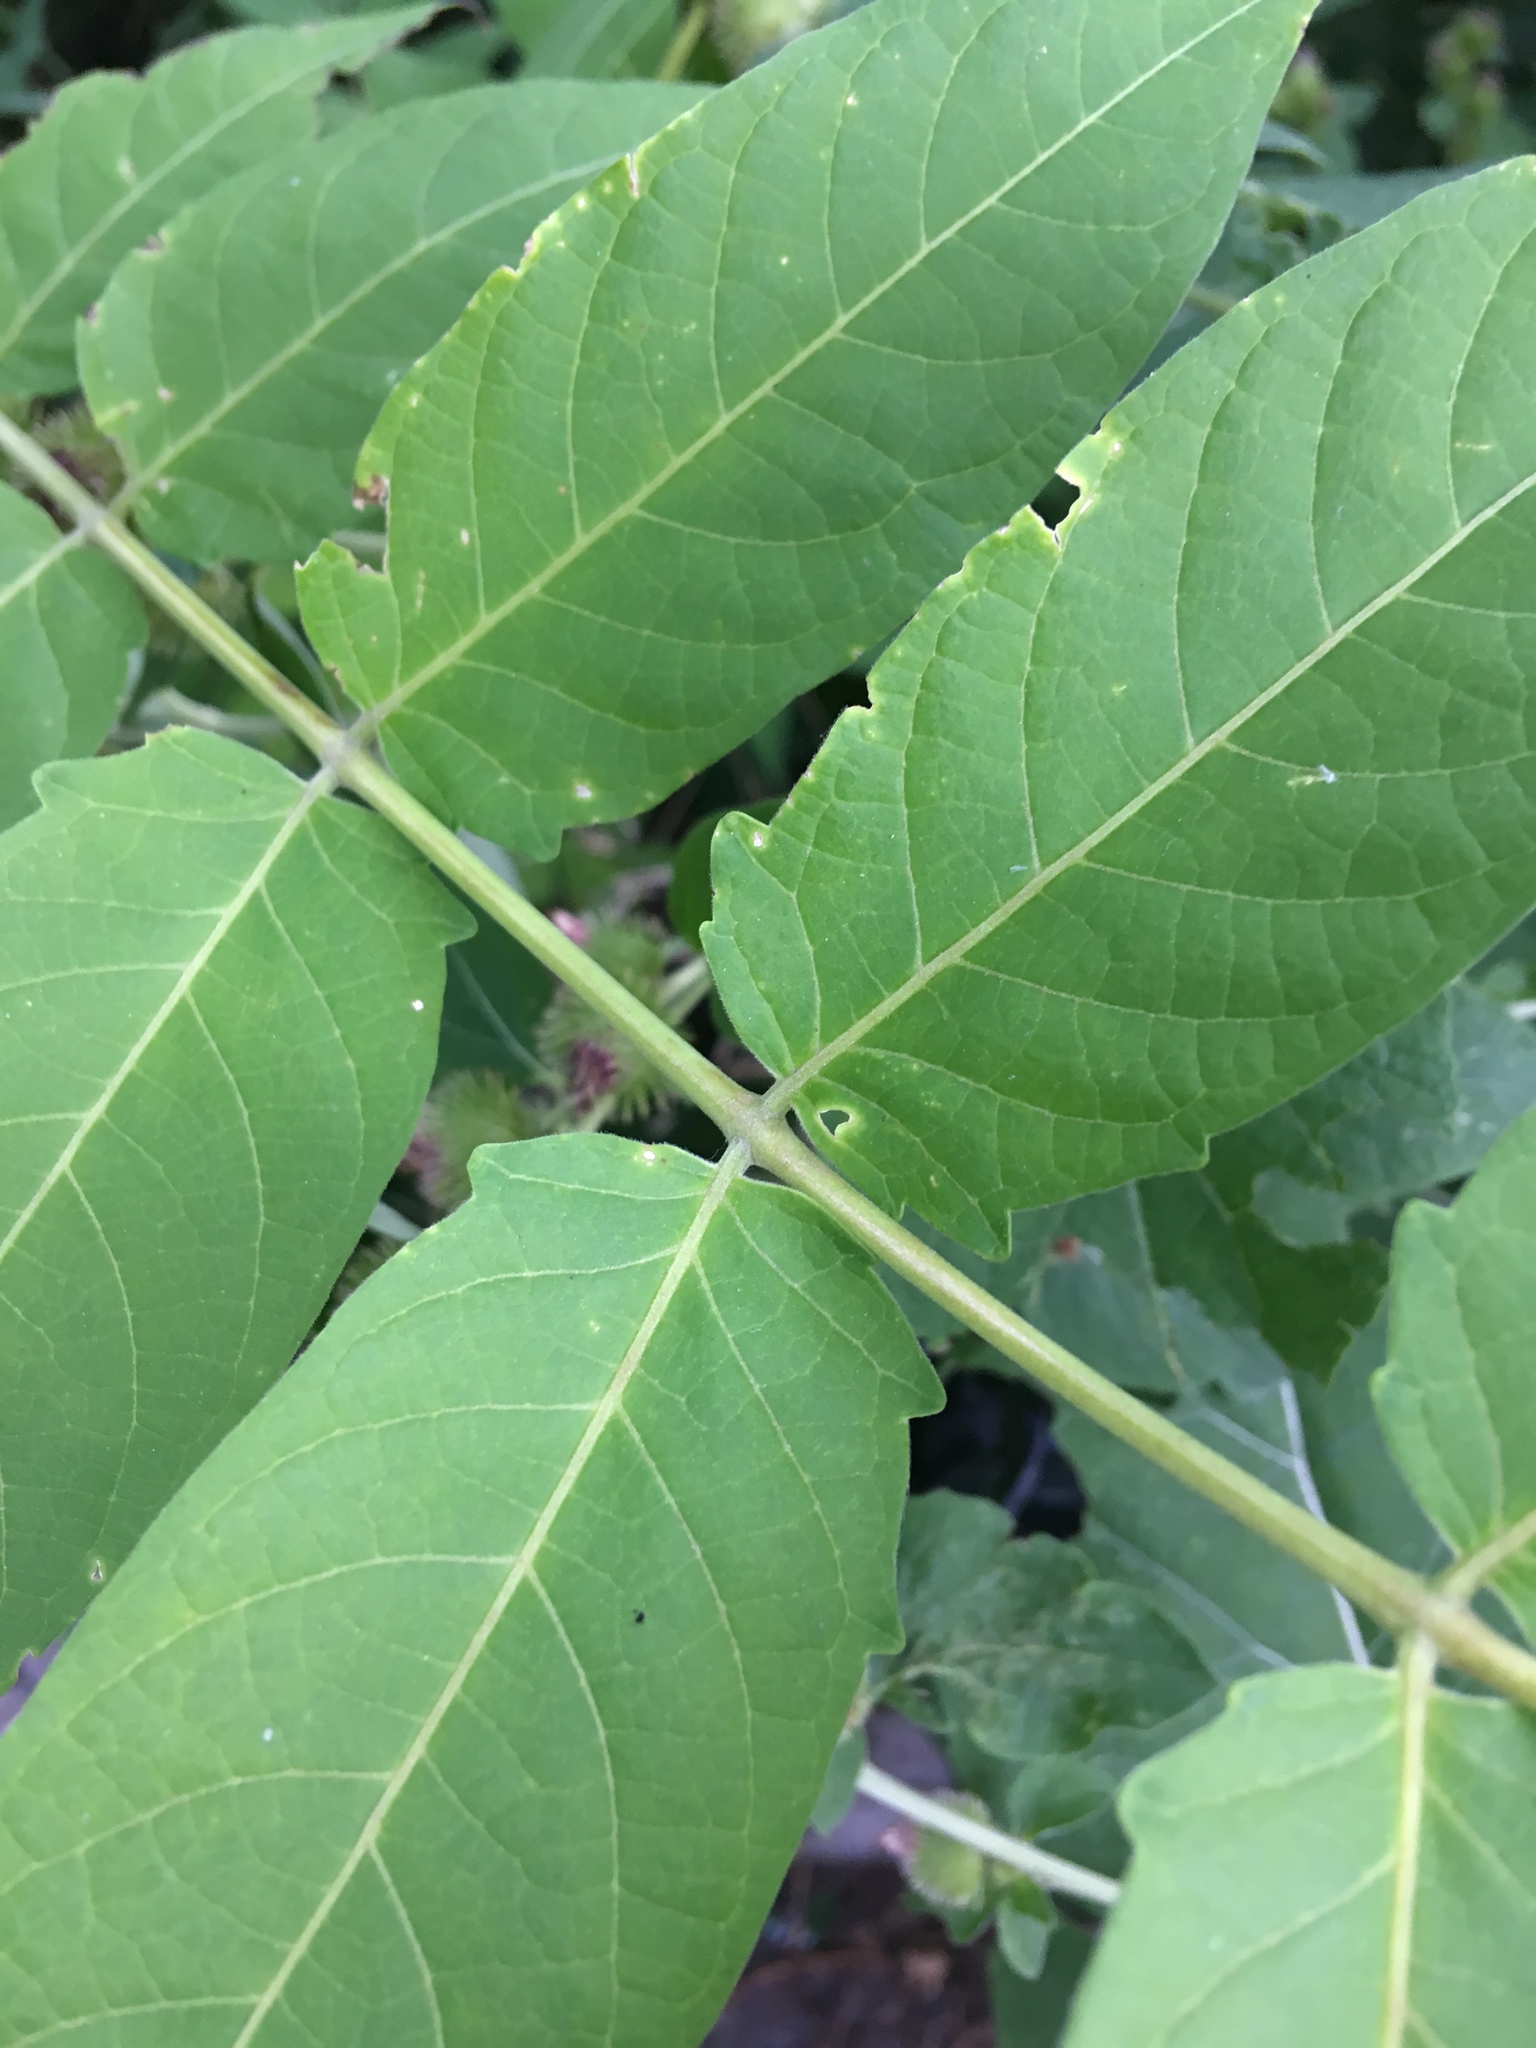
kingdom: Plantae
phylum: Tracheophyta
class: Magnoliopsida
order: Sapindales
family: Simaroubaceae
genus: Ailanthus
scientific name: Ailanthus altissima
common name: Tree-of-heaven
